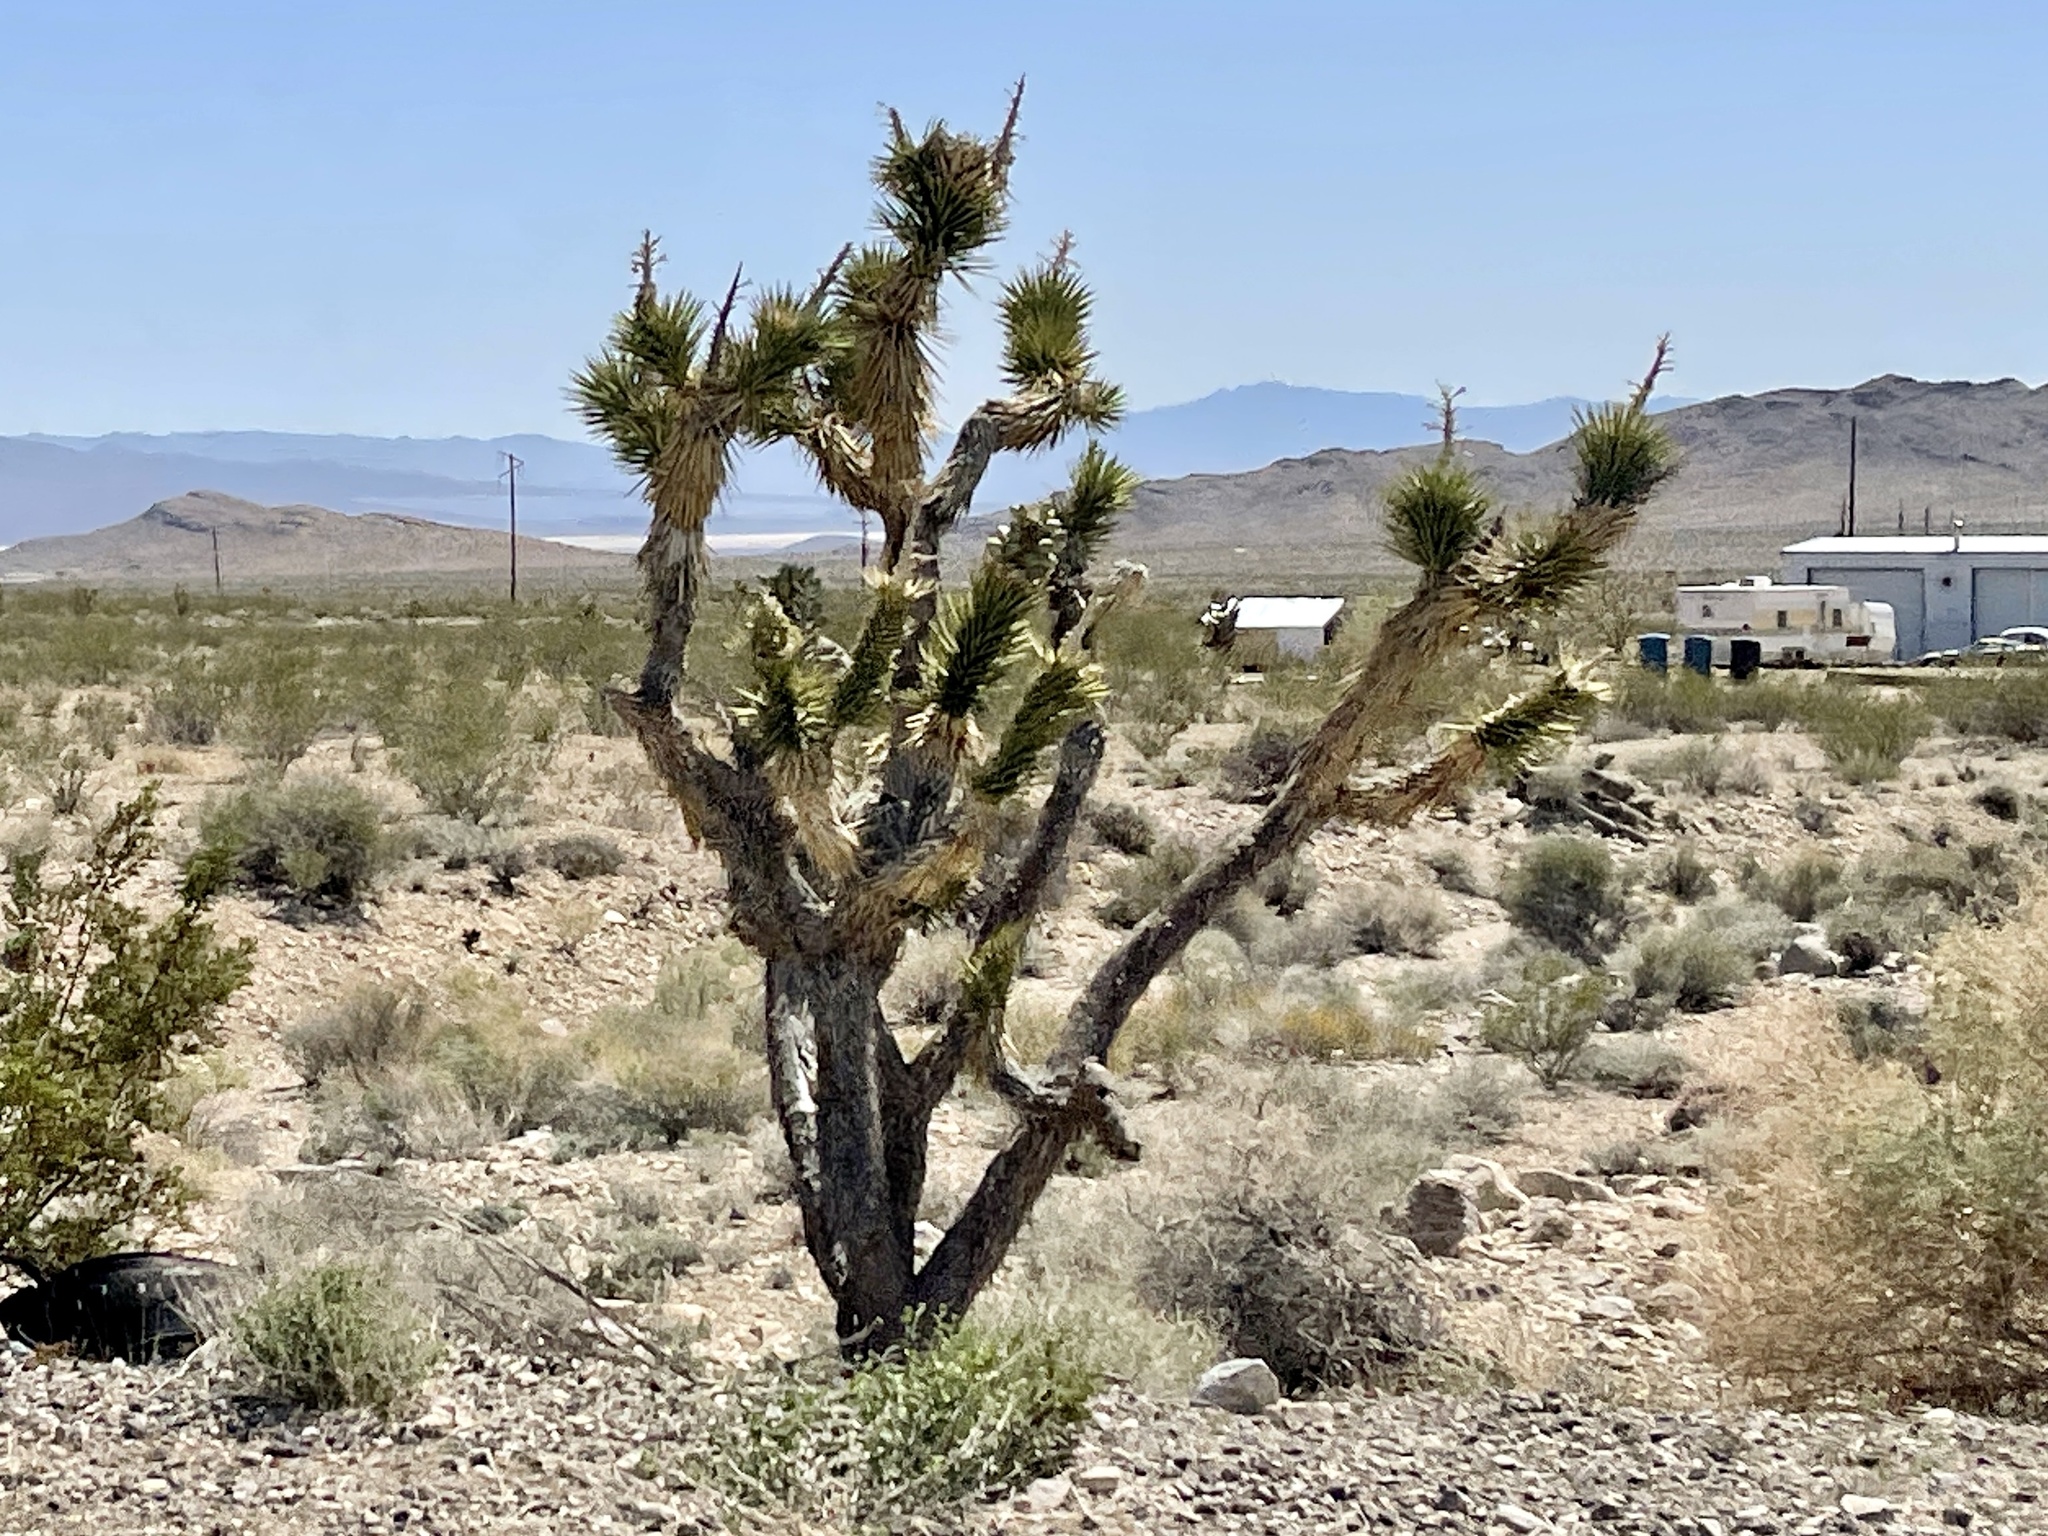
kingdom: Plantae
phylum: Tracheophyta
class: Liliopsida
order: Asparagales
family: Asparagaceae
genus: Yucca
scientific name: Yucca brevifolia
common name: Joshua tree
